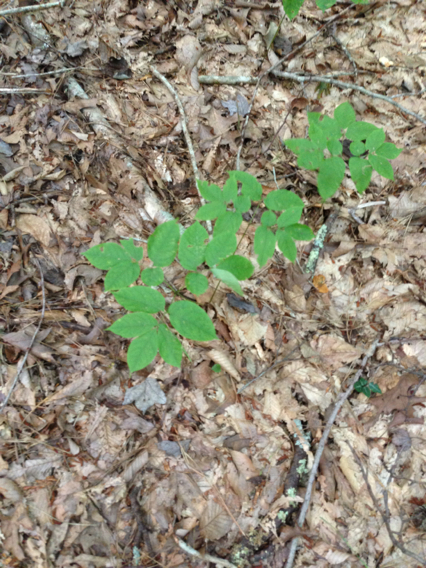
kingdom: Plantae
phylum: Tracheophyta
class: Magnoliopsida
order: Apiales
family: Araliaceae
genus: Aralia
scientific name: Aralia nudicaulis
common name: Wild sarsaparilla
